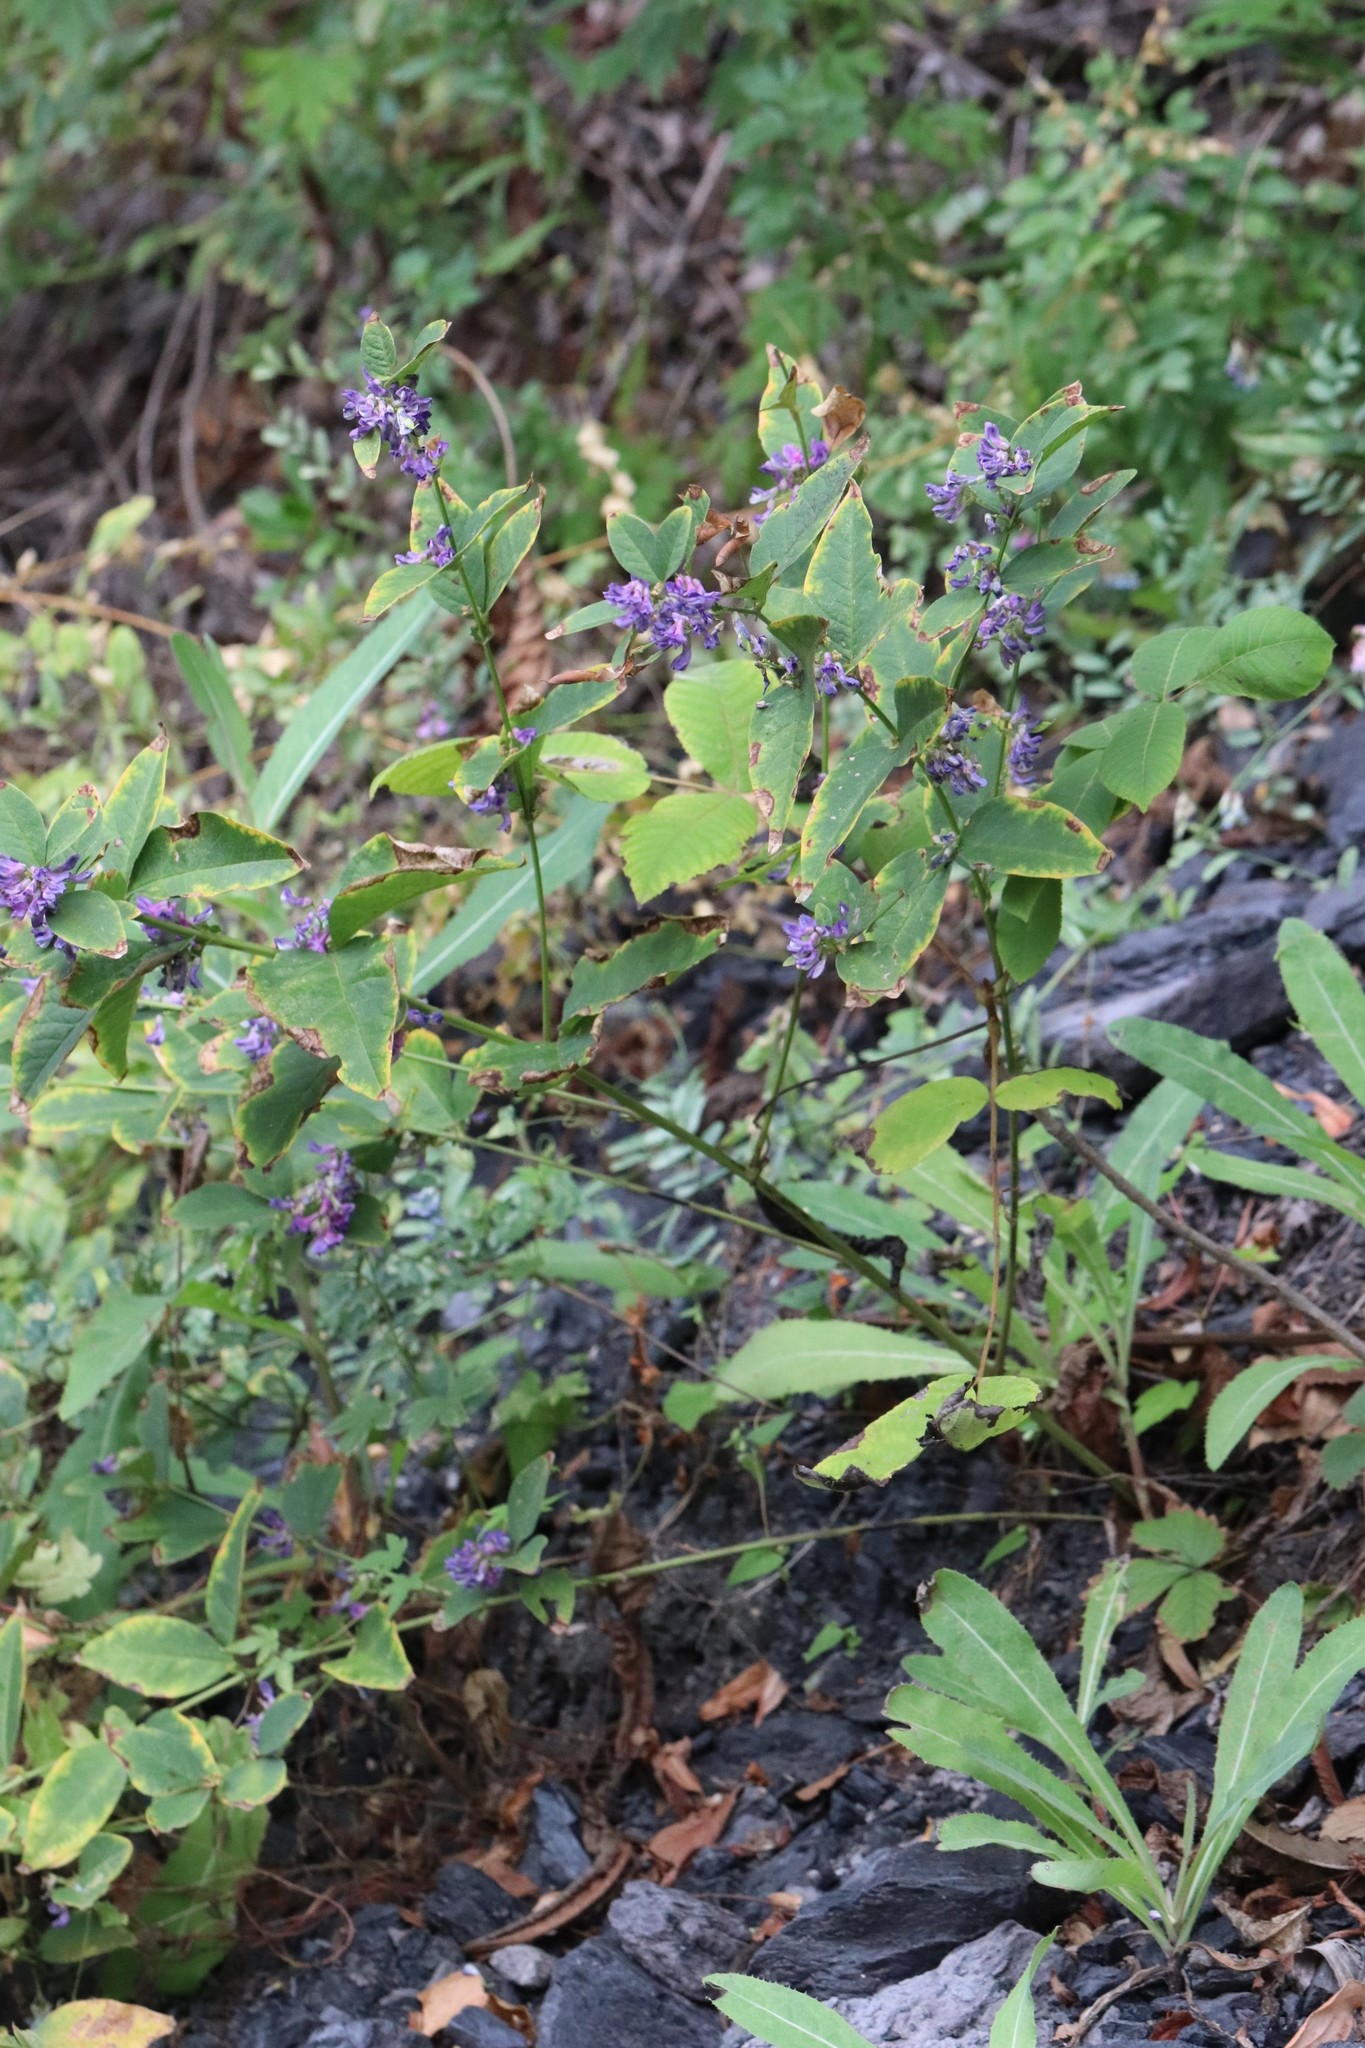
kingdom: Plantae
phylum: Tracheophyta
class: Magnoliopsida
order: Fabales
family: Fabaceae
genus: Vicia
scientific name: Vicia unijuga
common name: Two-leaf vetch
